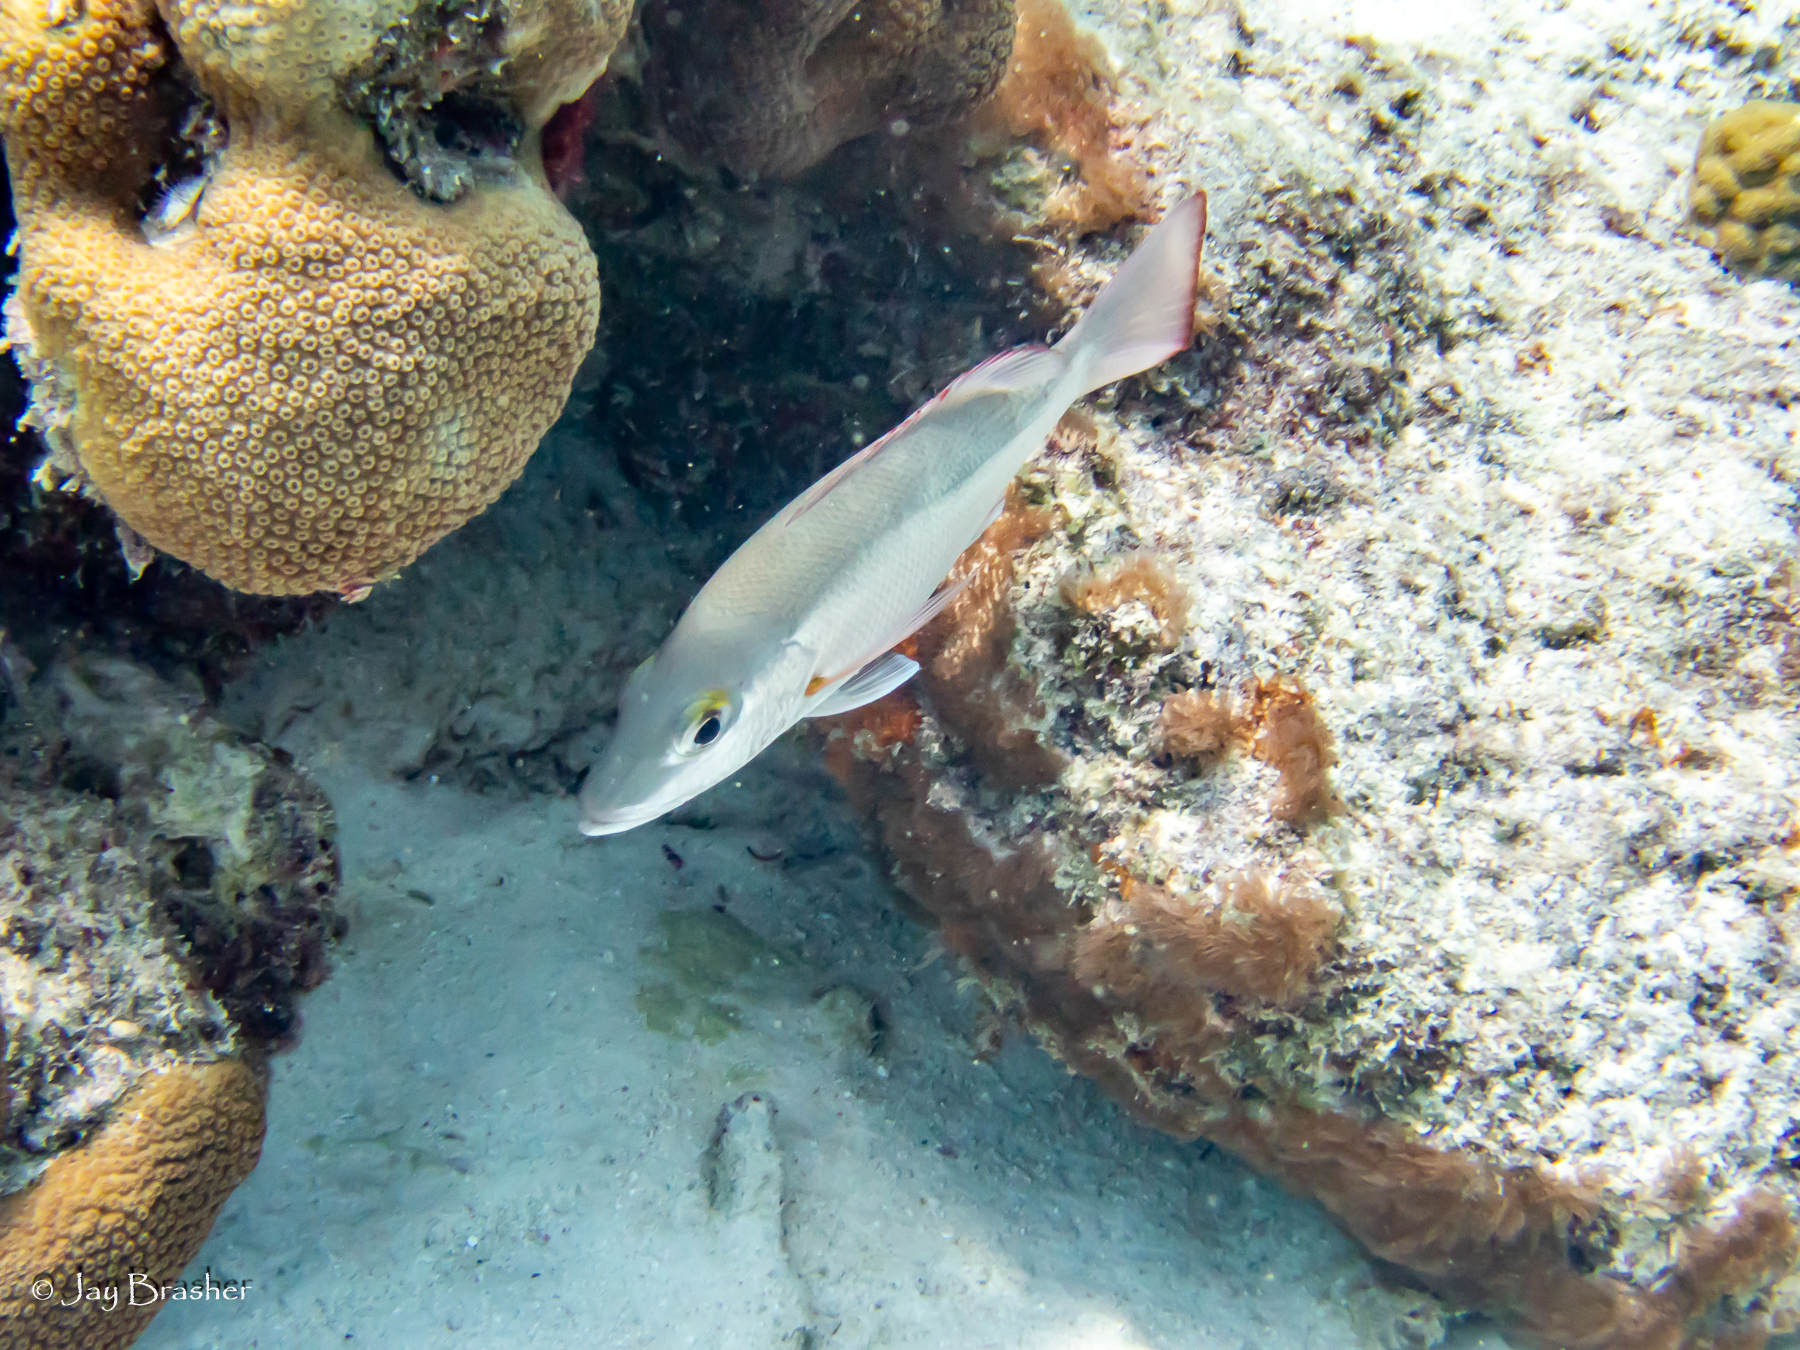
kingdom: Animalia
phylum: Chordata
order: Perciformes
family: Lutjanidae
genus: Lutjanus
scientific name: Lutjanus mahogoni
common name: Spot snapper
